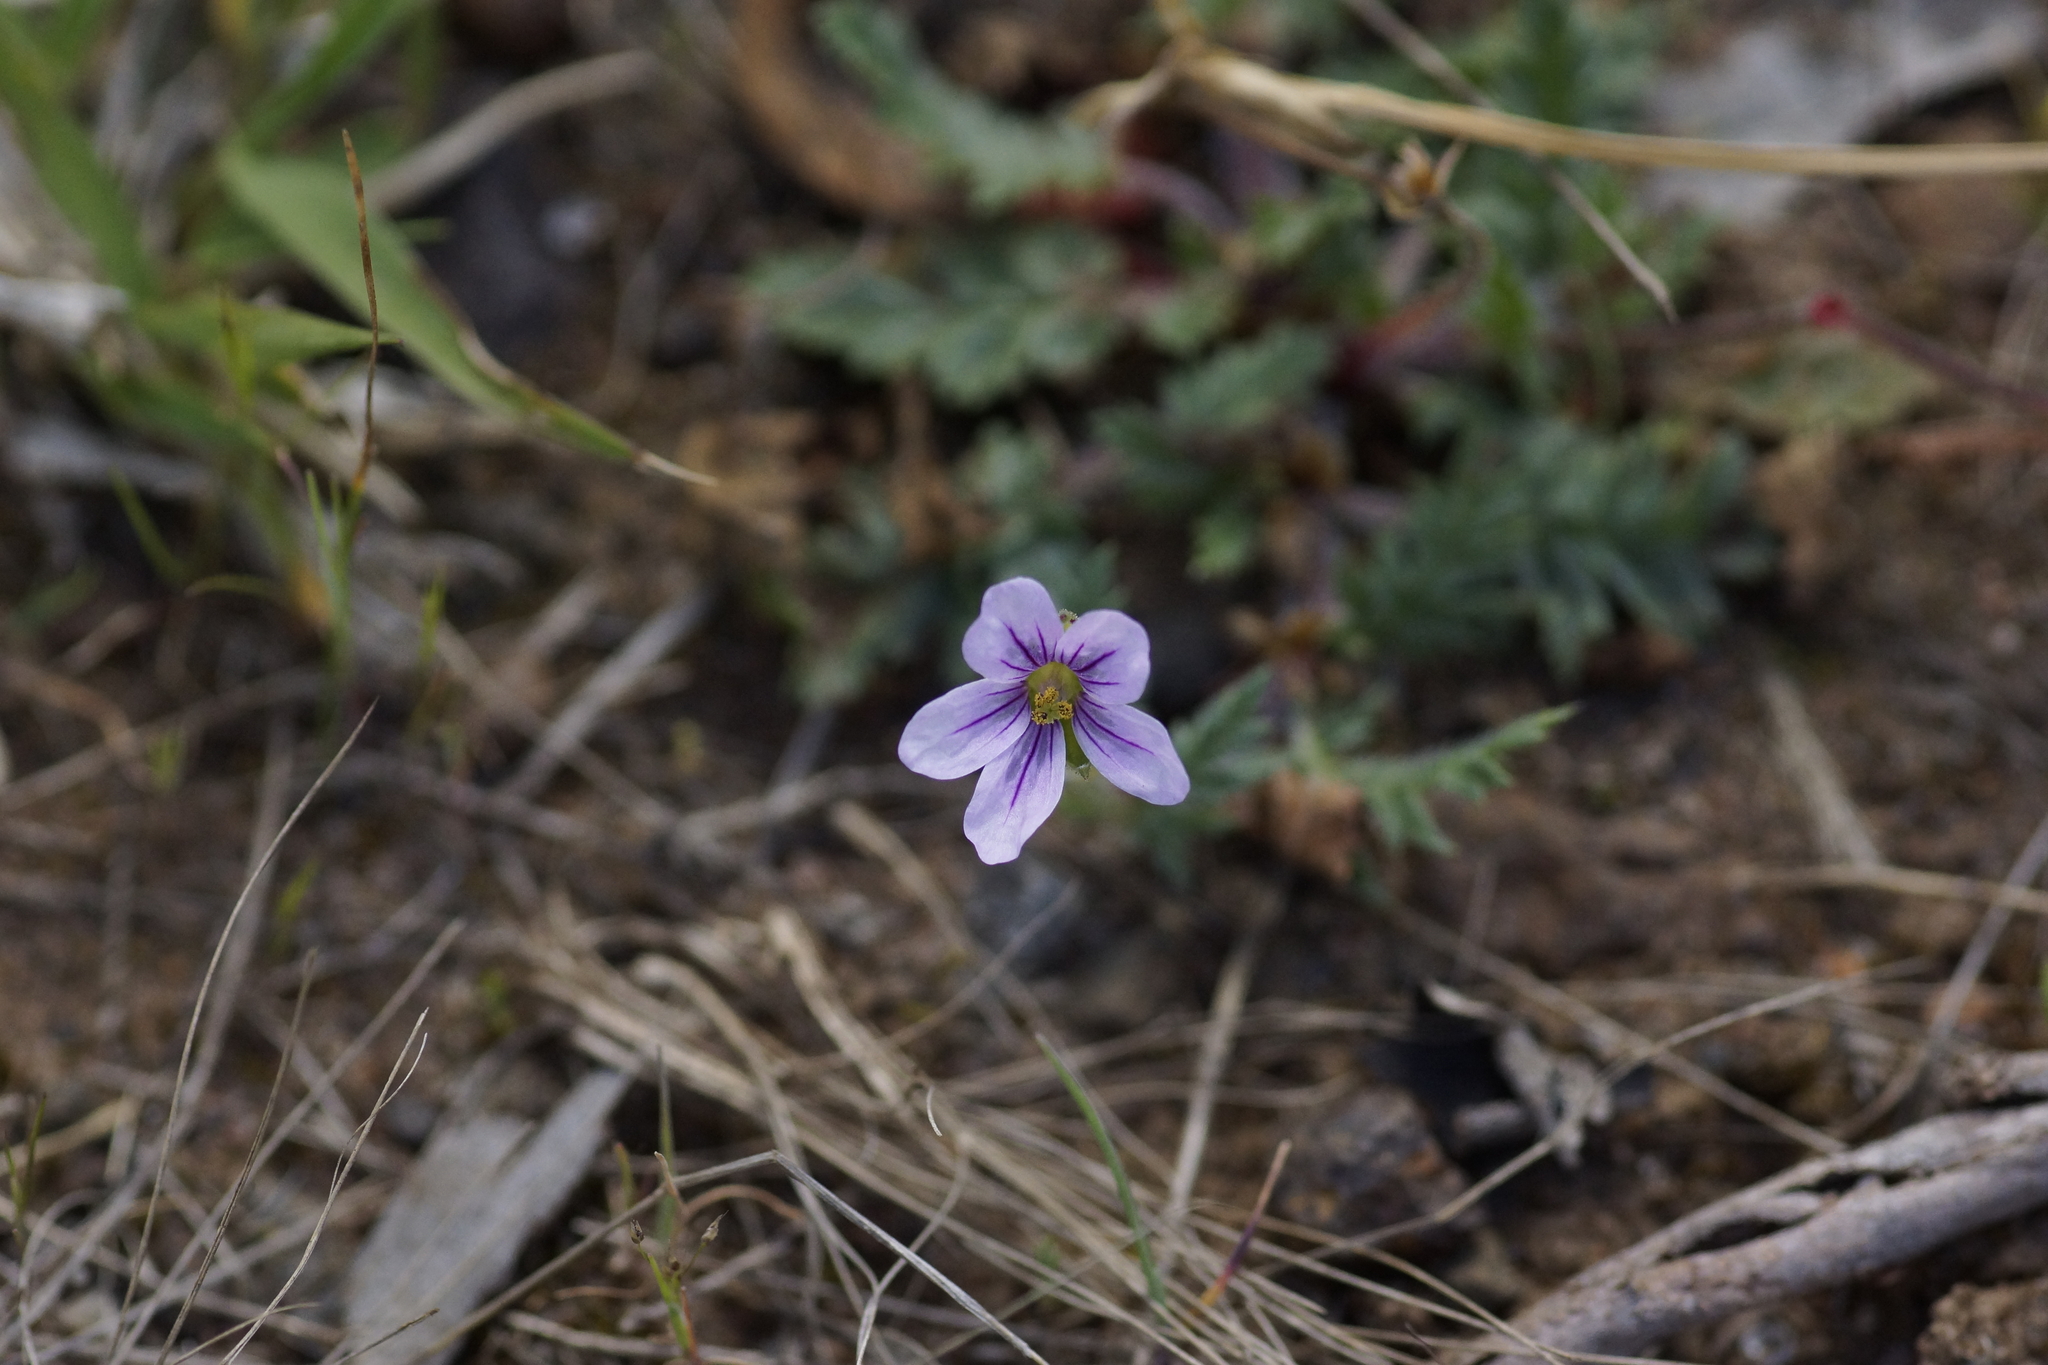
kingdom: Plantae
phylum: Tracheophyta
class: Magnoliopsida
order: Geraniales
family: Geraniaceae
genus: Erodium
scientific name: Erodium botrys
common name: Mediterranean stork's-bill
